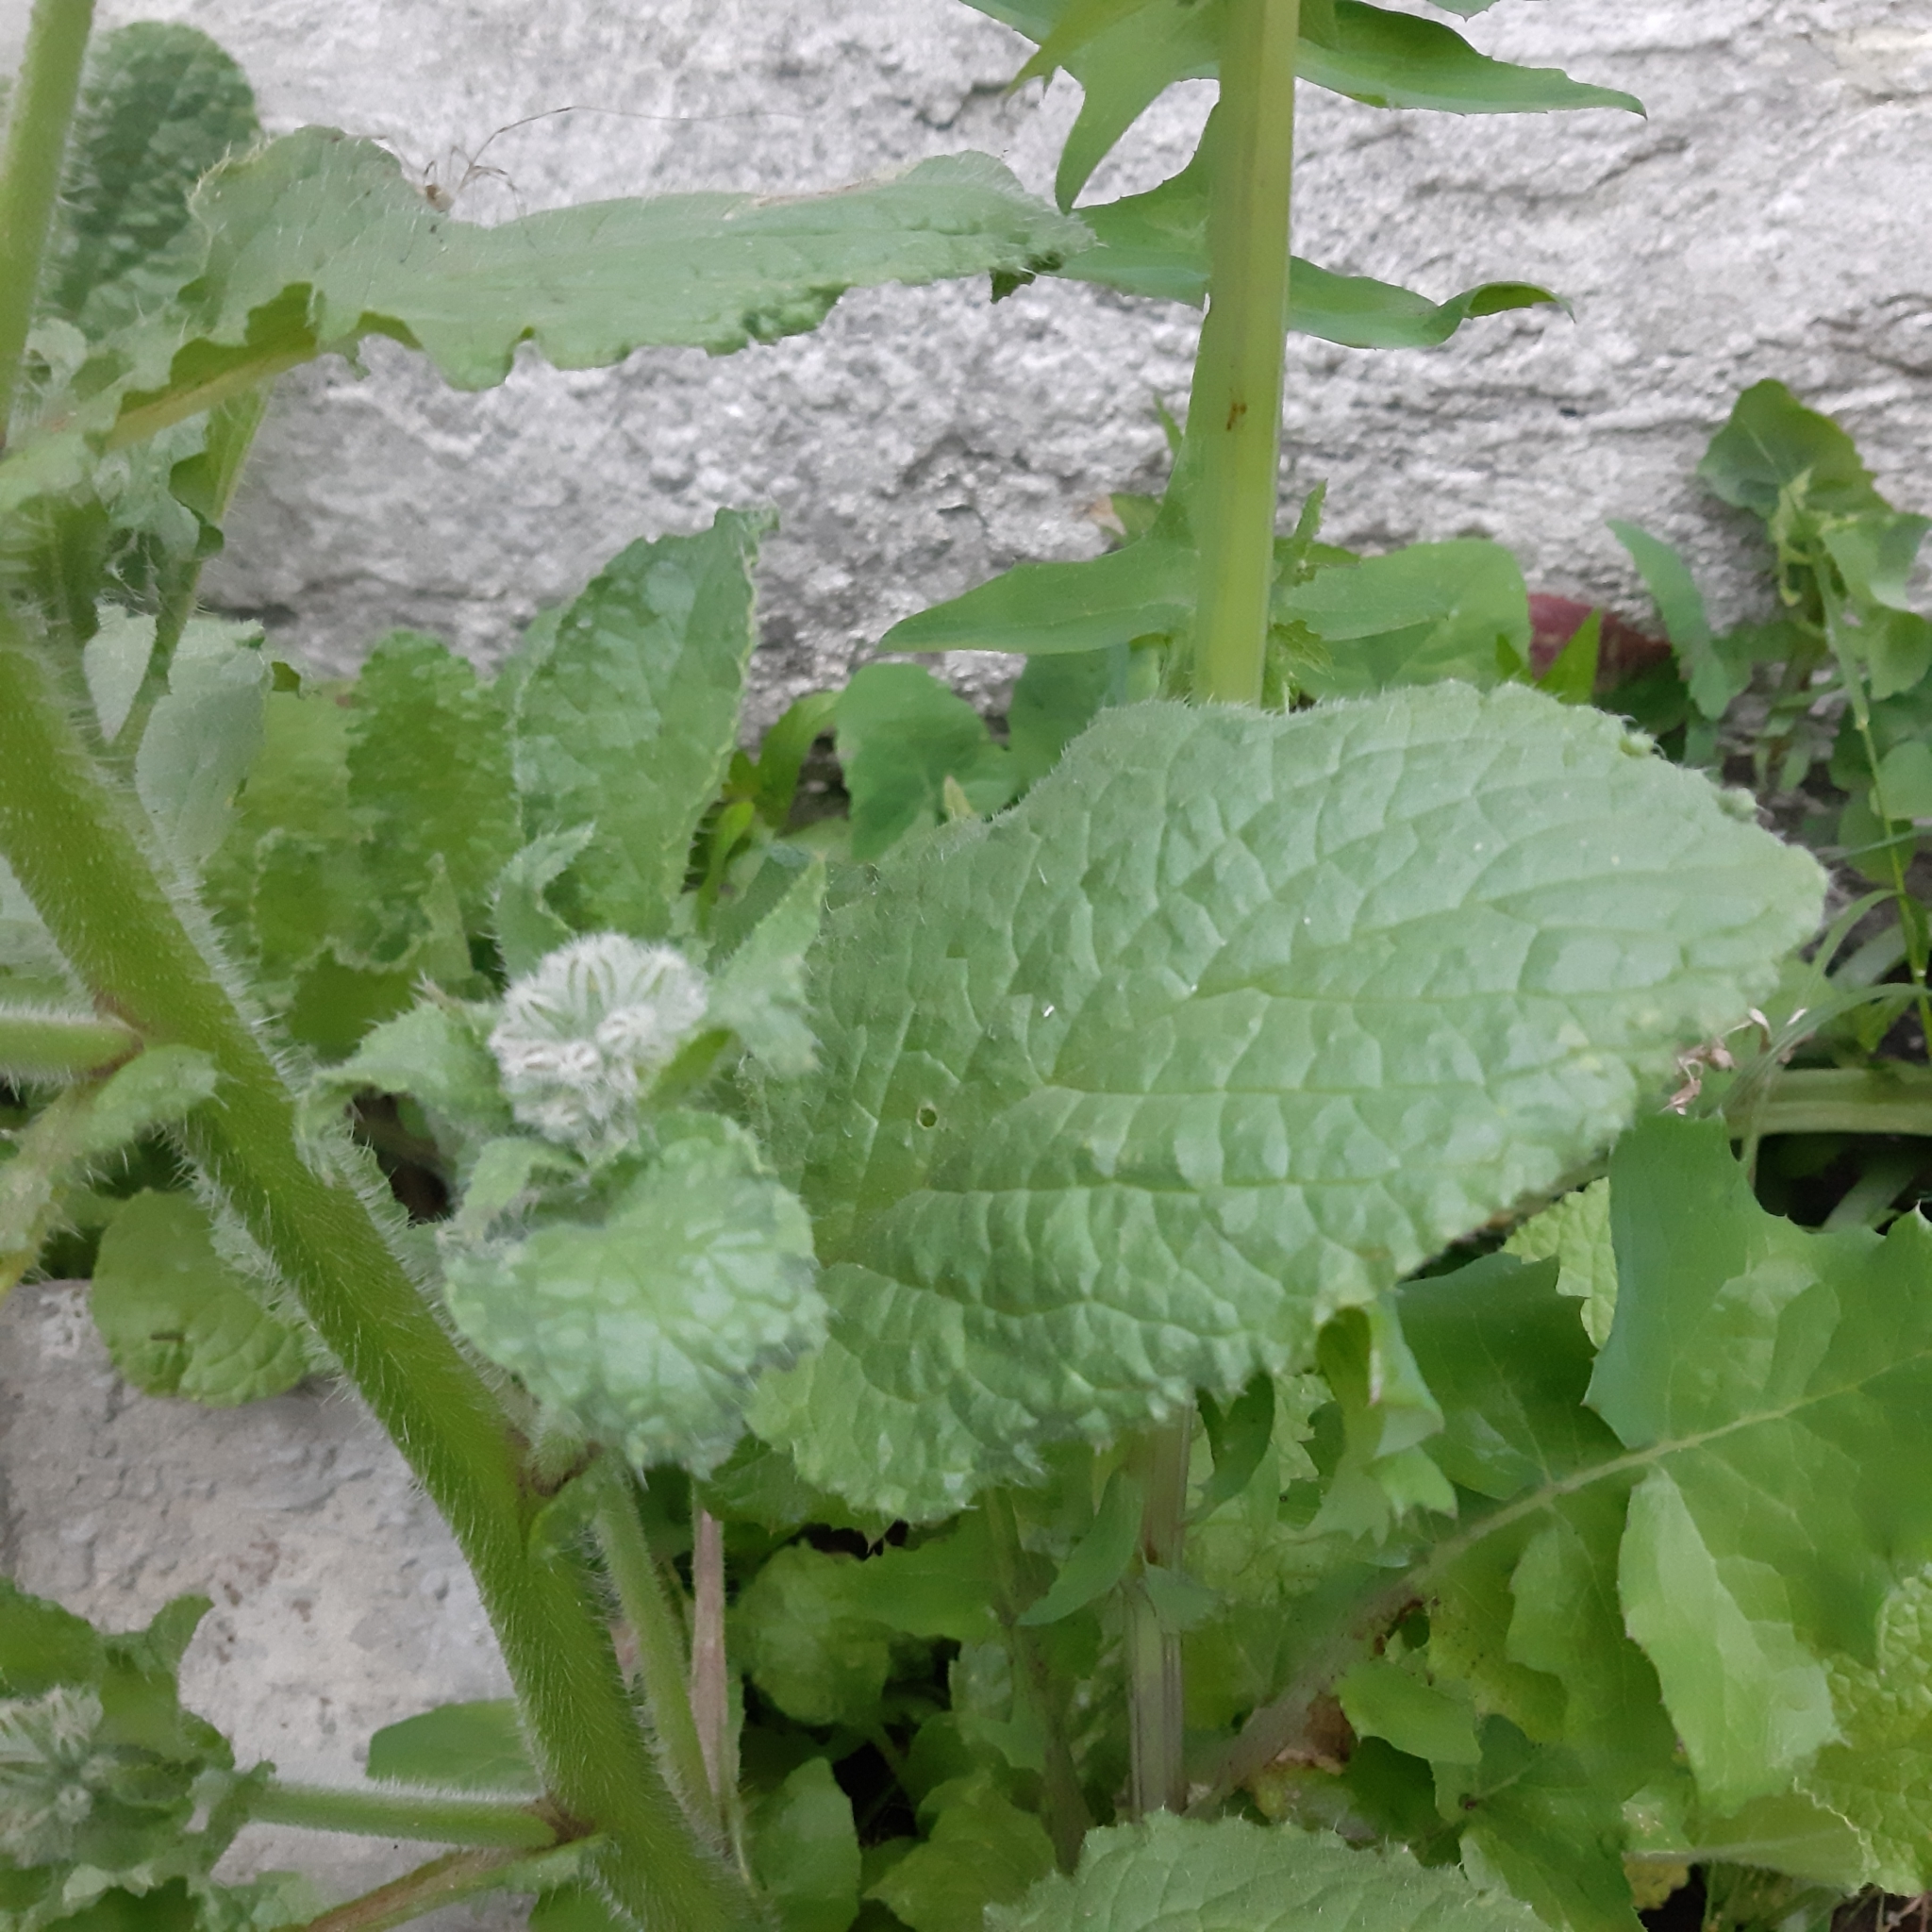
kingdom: Plantae
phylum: Tracheophyta
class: Magnoliopsida
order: Boraginales
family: Boraginaceae
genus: Borago
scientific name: Borago officinalis
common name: Borage
